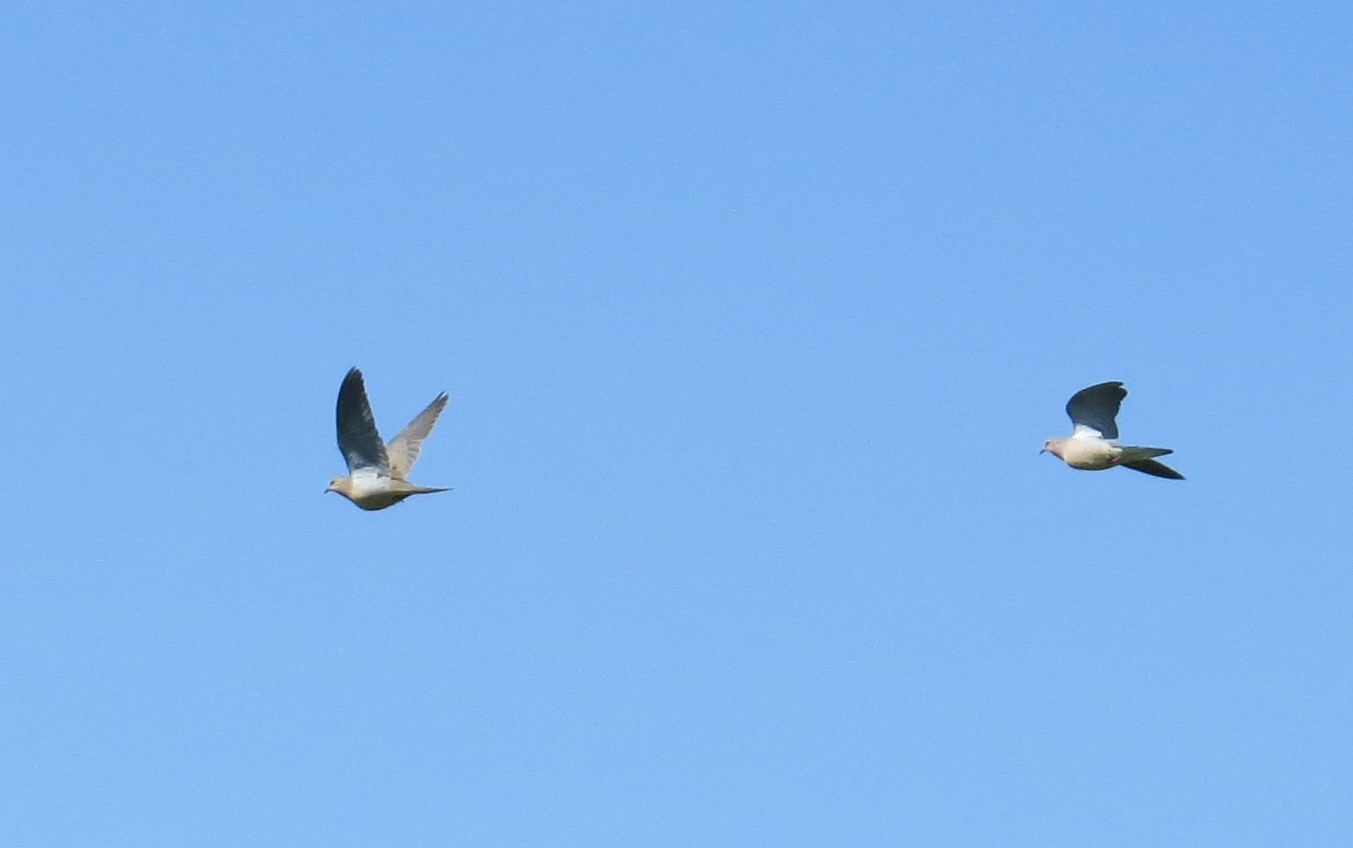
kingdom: Animalia
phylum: Chordata
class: Aves
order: Columbiformes
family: Columbidae
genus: Zenaida
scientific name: Zenaida macroura
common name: Mourning dove
